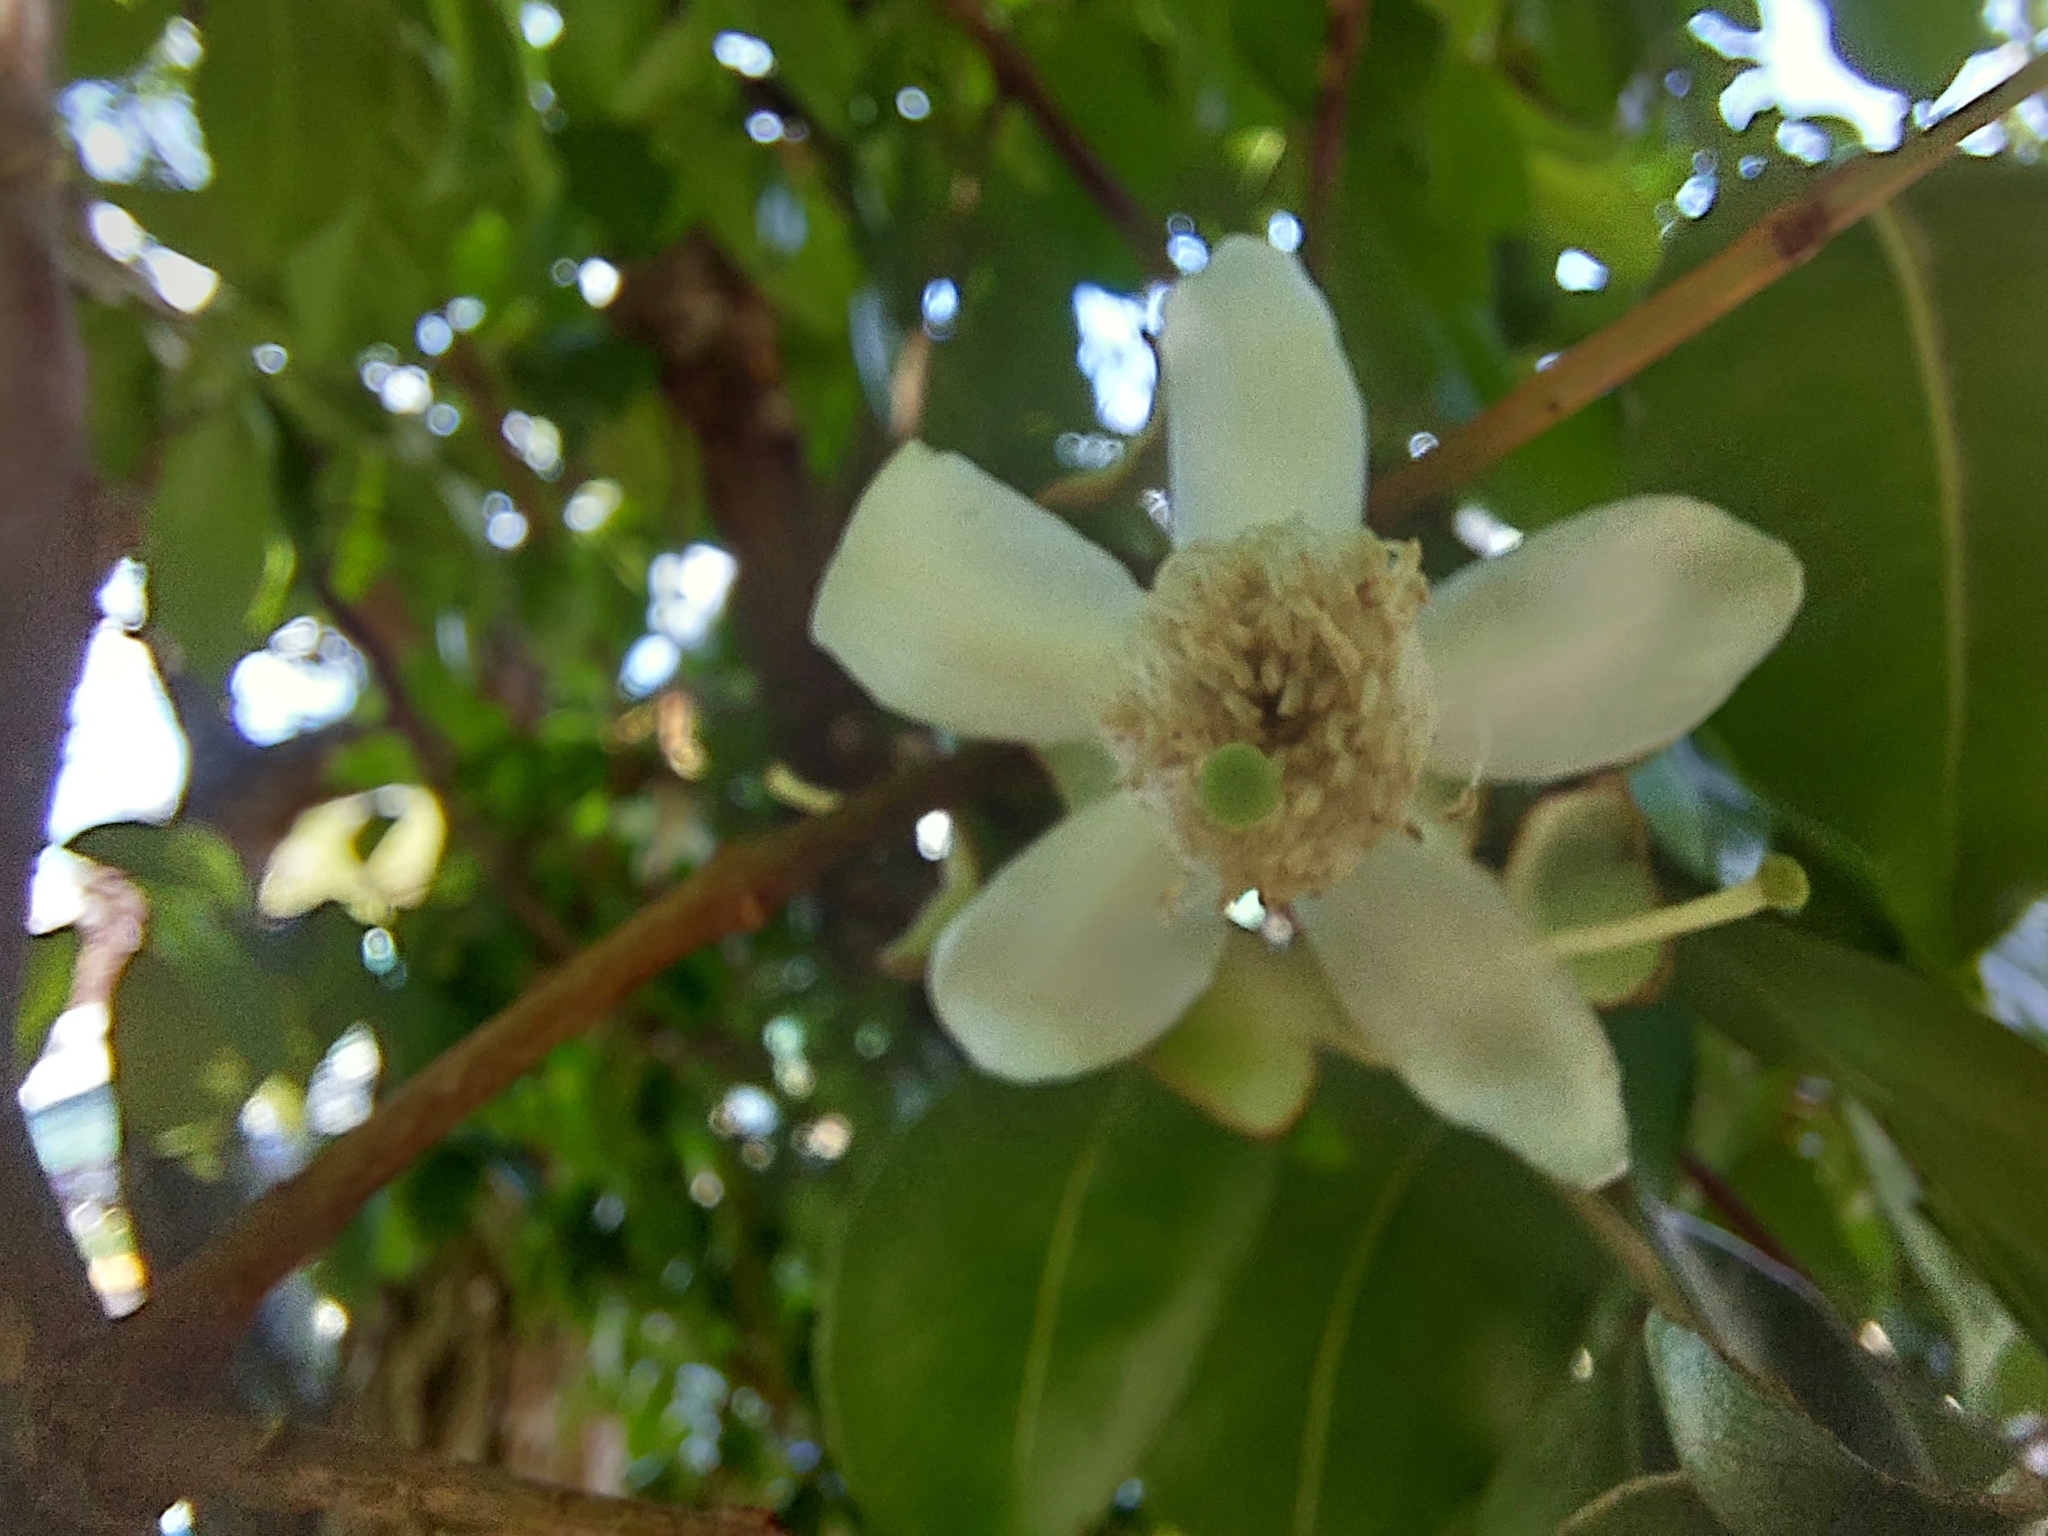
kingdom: Plantae
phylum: Tracheophyta
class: Magnoliopsida
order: Myrtales
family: Myrtaceae
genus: Psidium
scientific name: Psidium friedrichsthalianum
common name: Costa rican guava
